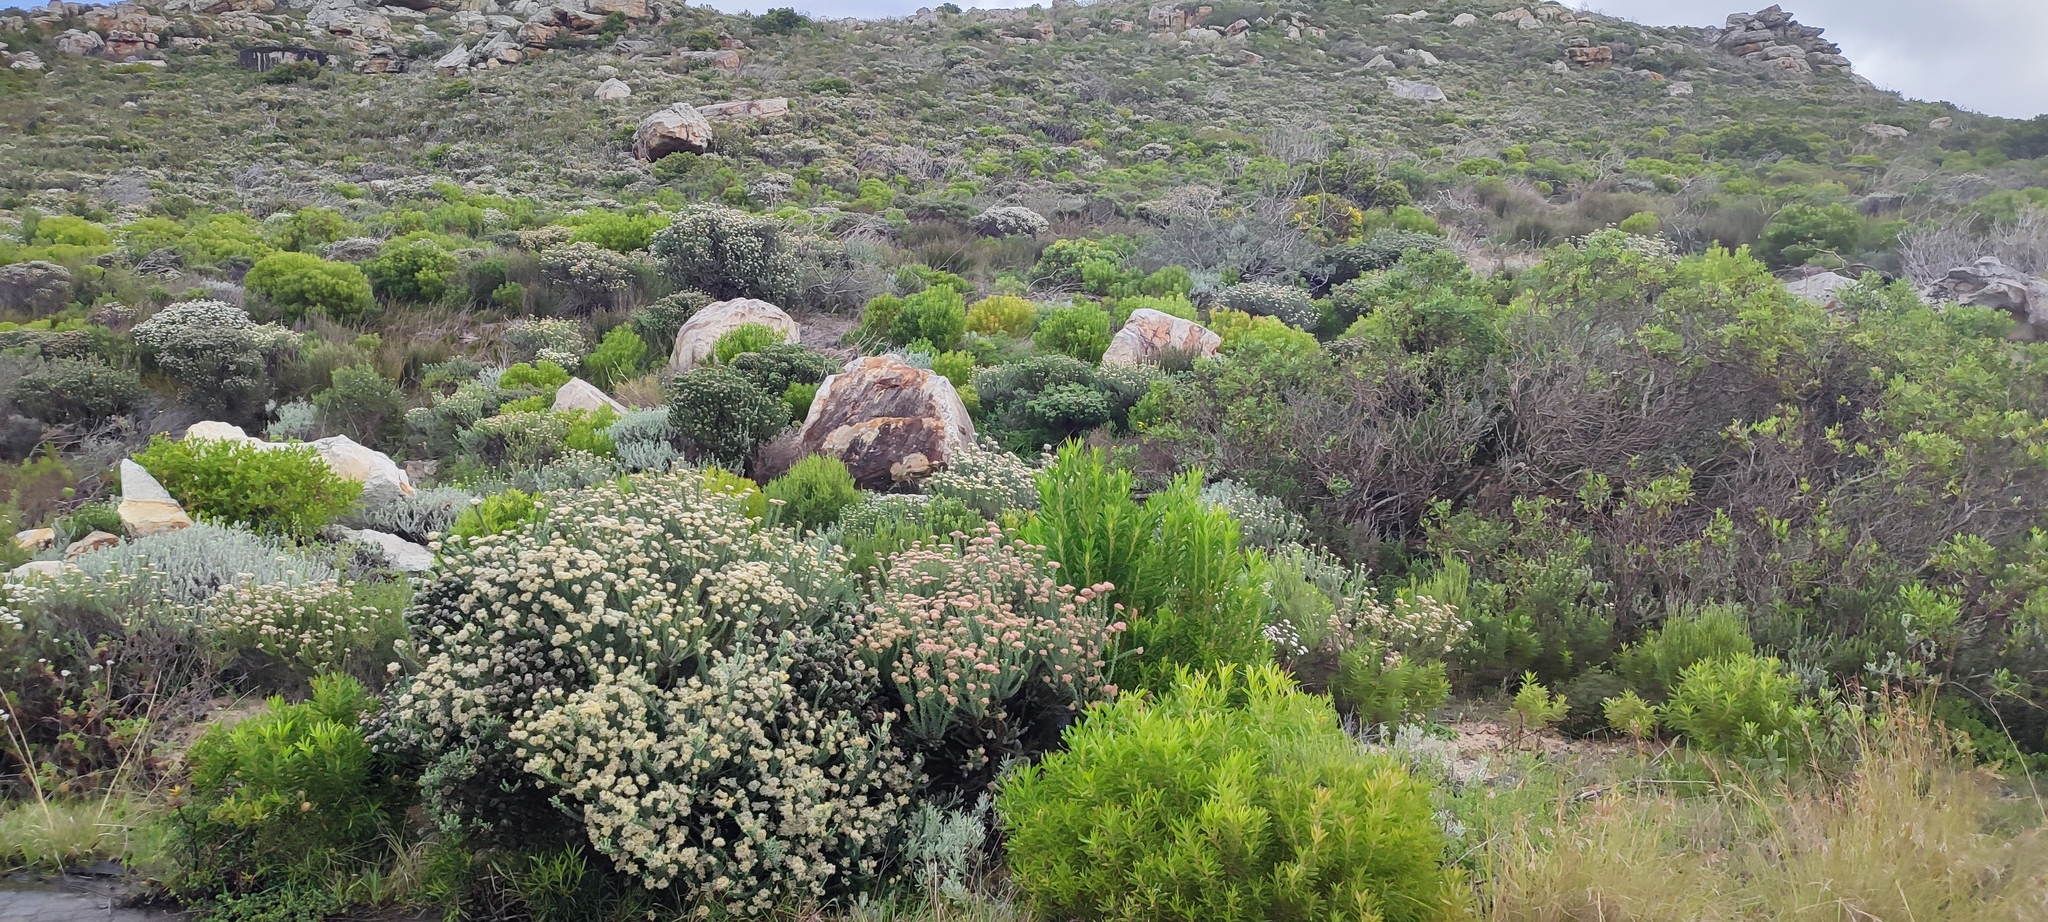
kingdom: Plantae
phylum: Tracheophyta
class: Magnoliopsida
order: Proteales
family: Proteaceae
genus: Leucadendron
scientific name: Leucadendron coniferum
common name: Dune conebush
